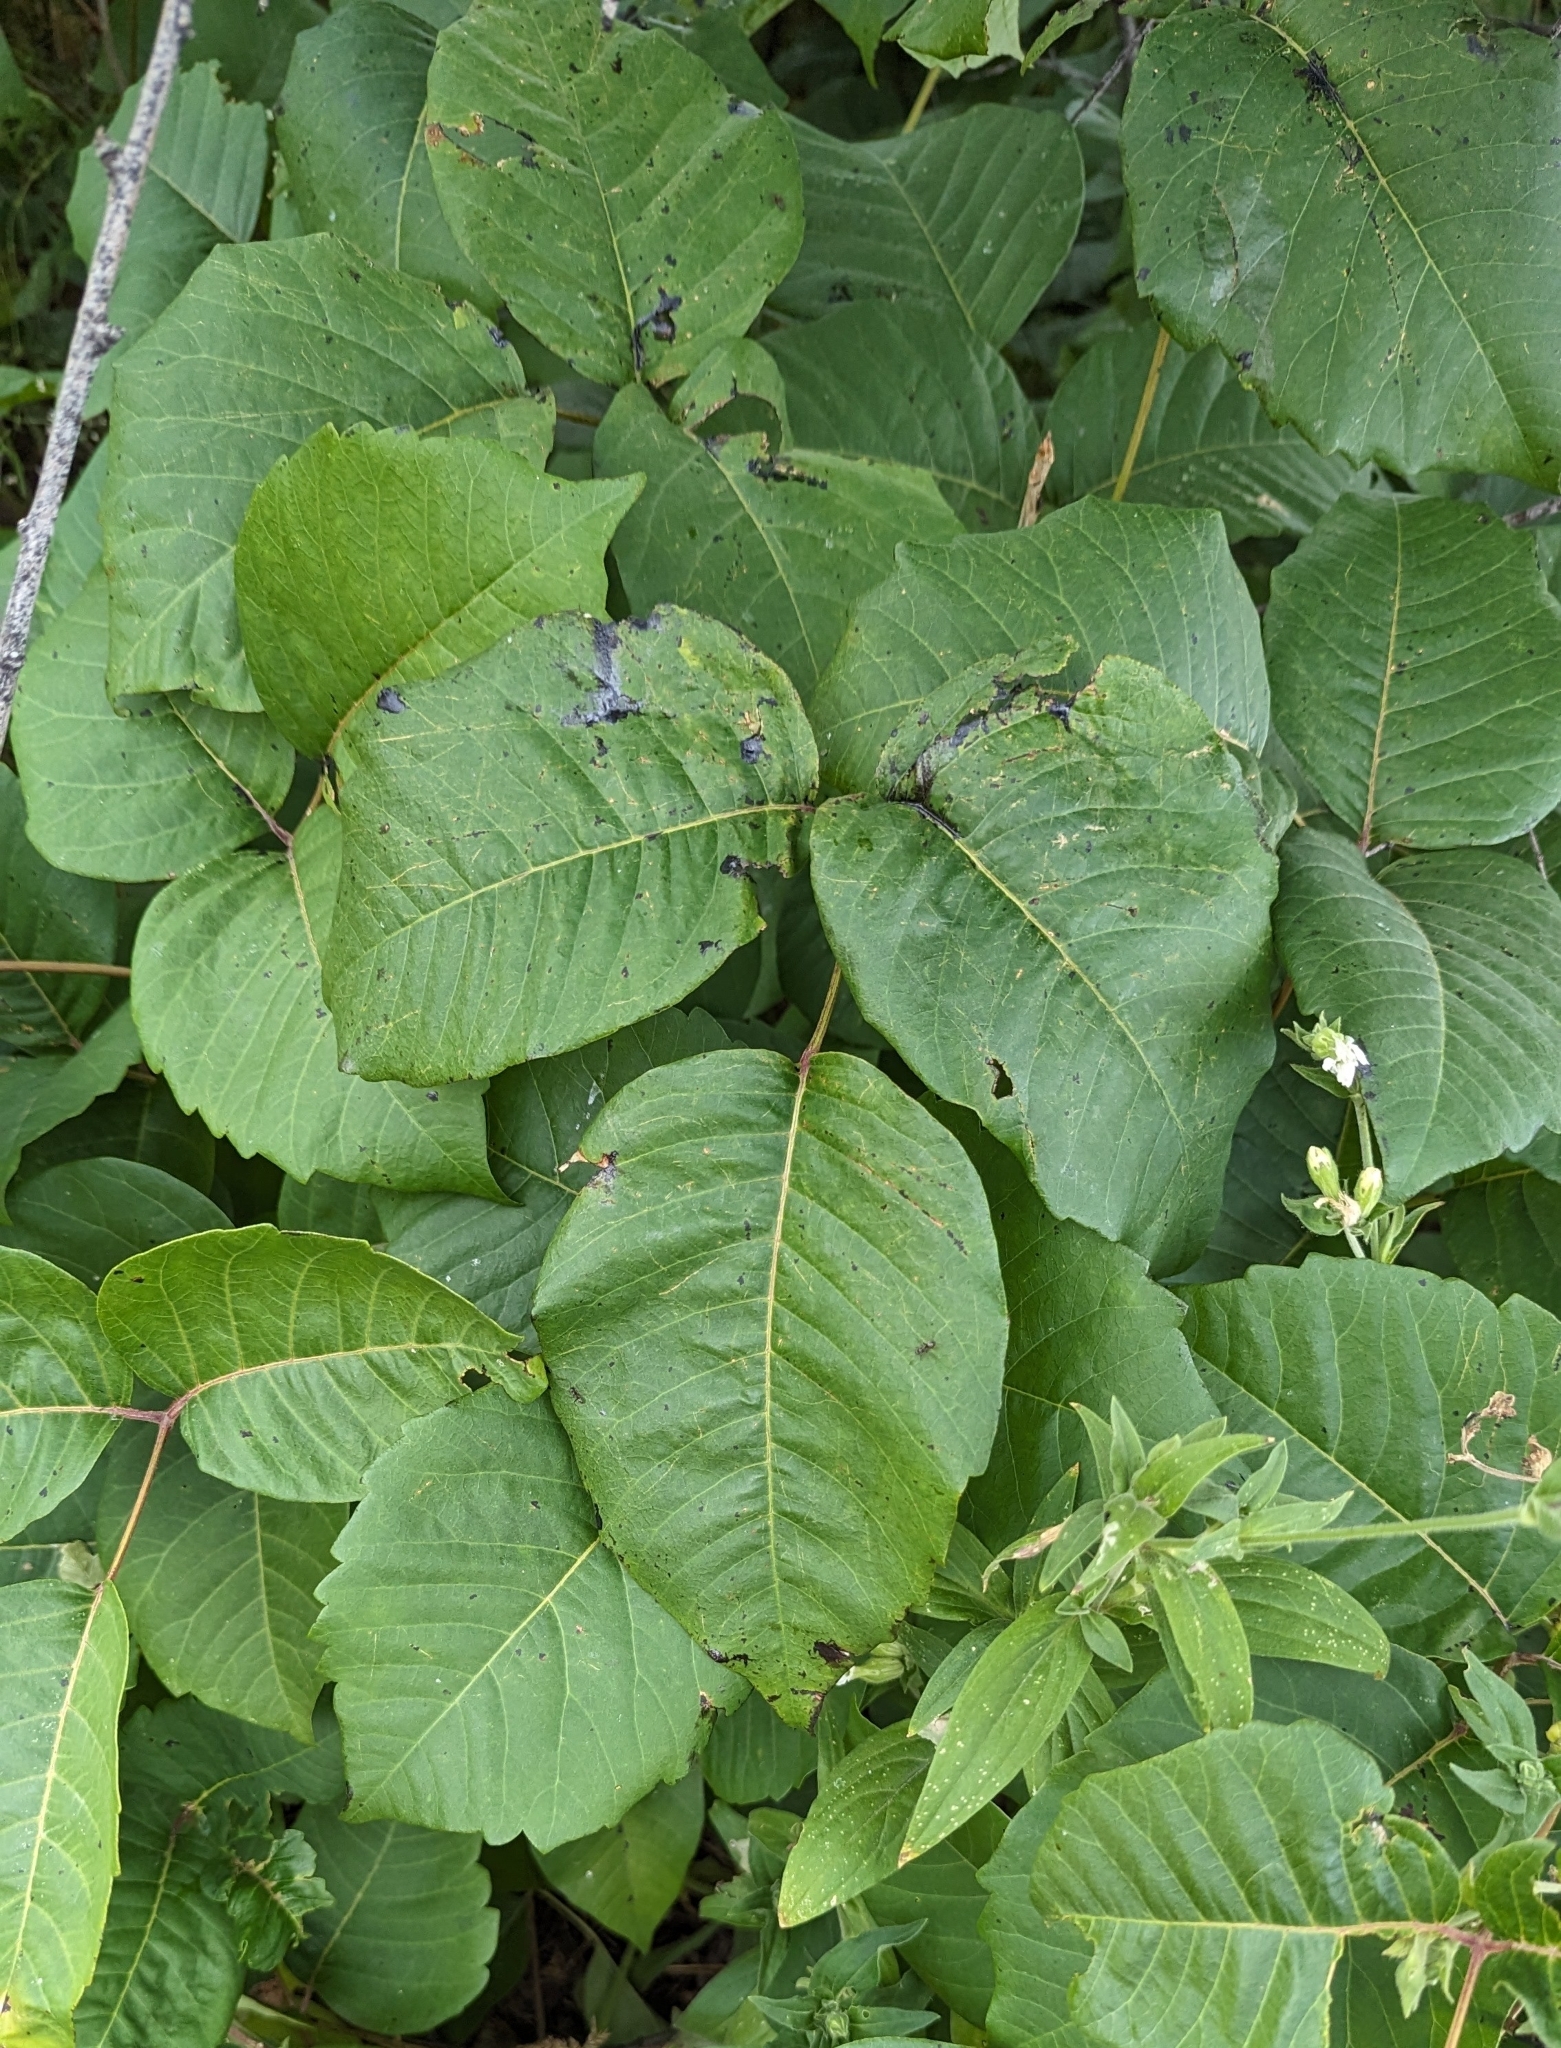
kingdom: Plantae
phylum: Tracheophyta
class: Magnoliopsida
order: Sapindales
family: Anacardiaceae
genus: Toxicodendron
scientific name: Toxicodendron rydbergii
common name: Rydberg's poison-ivy
